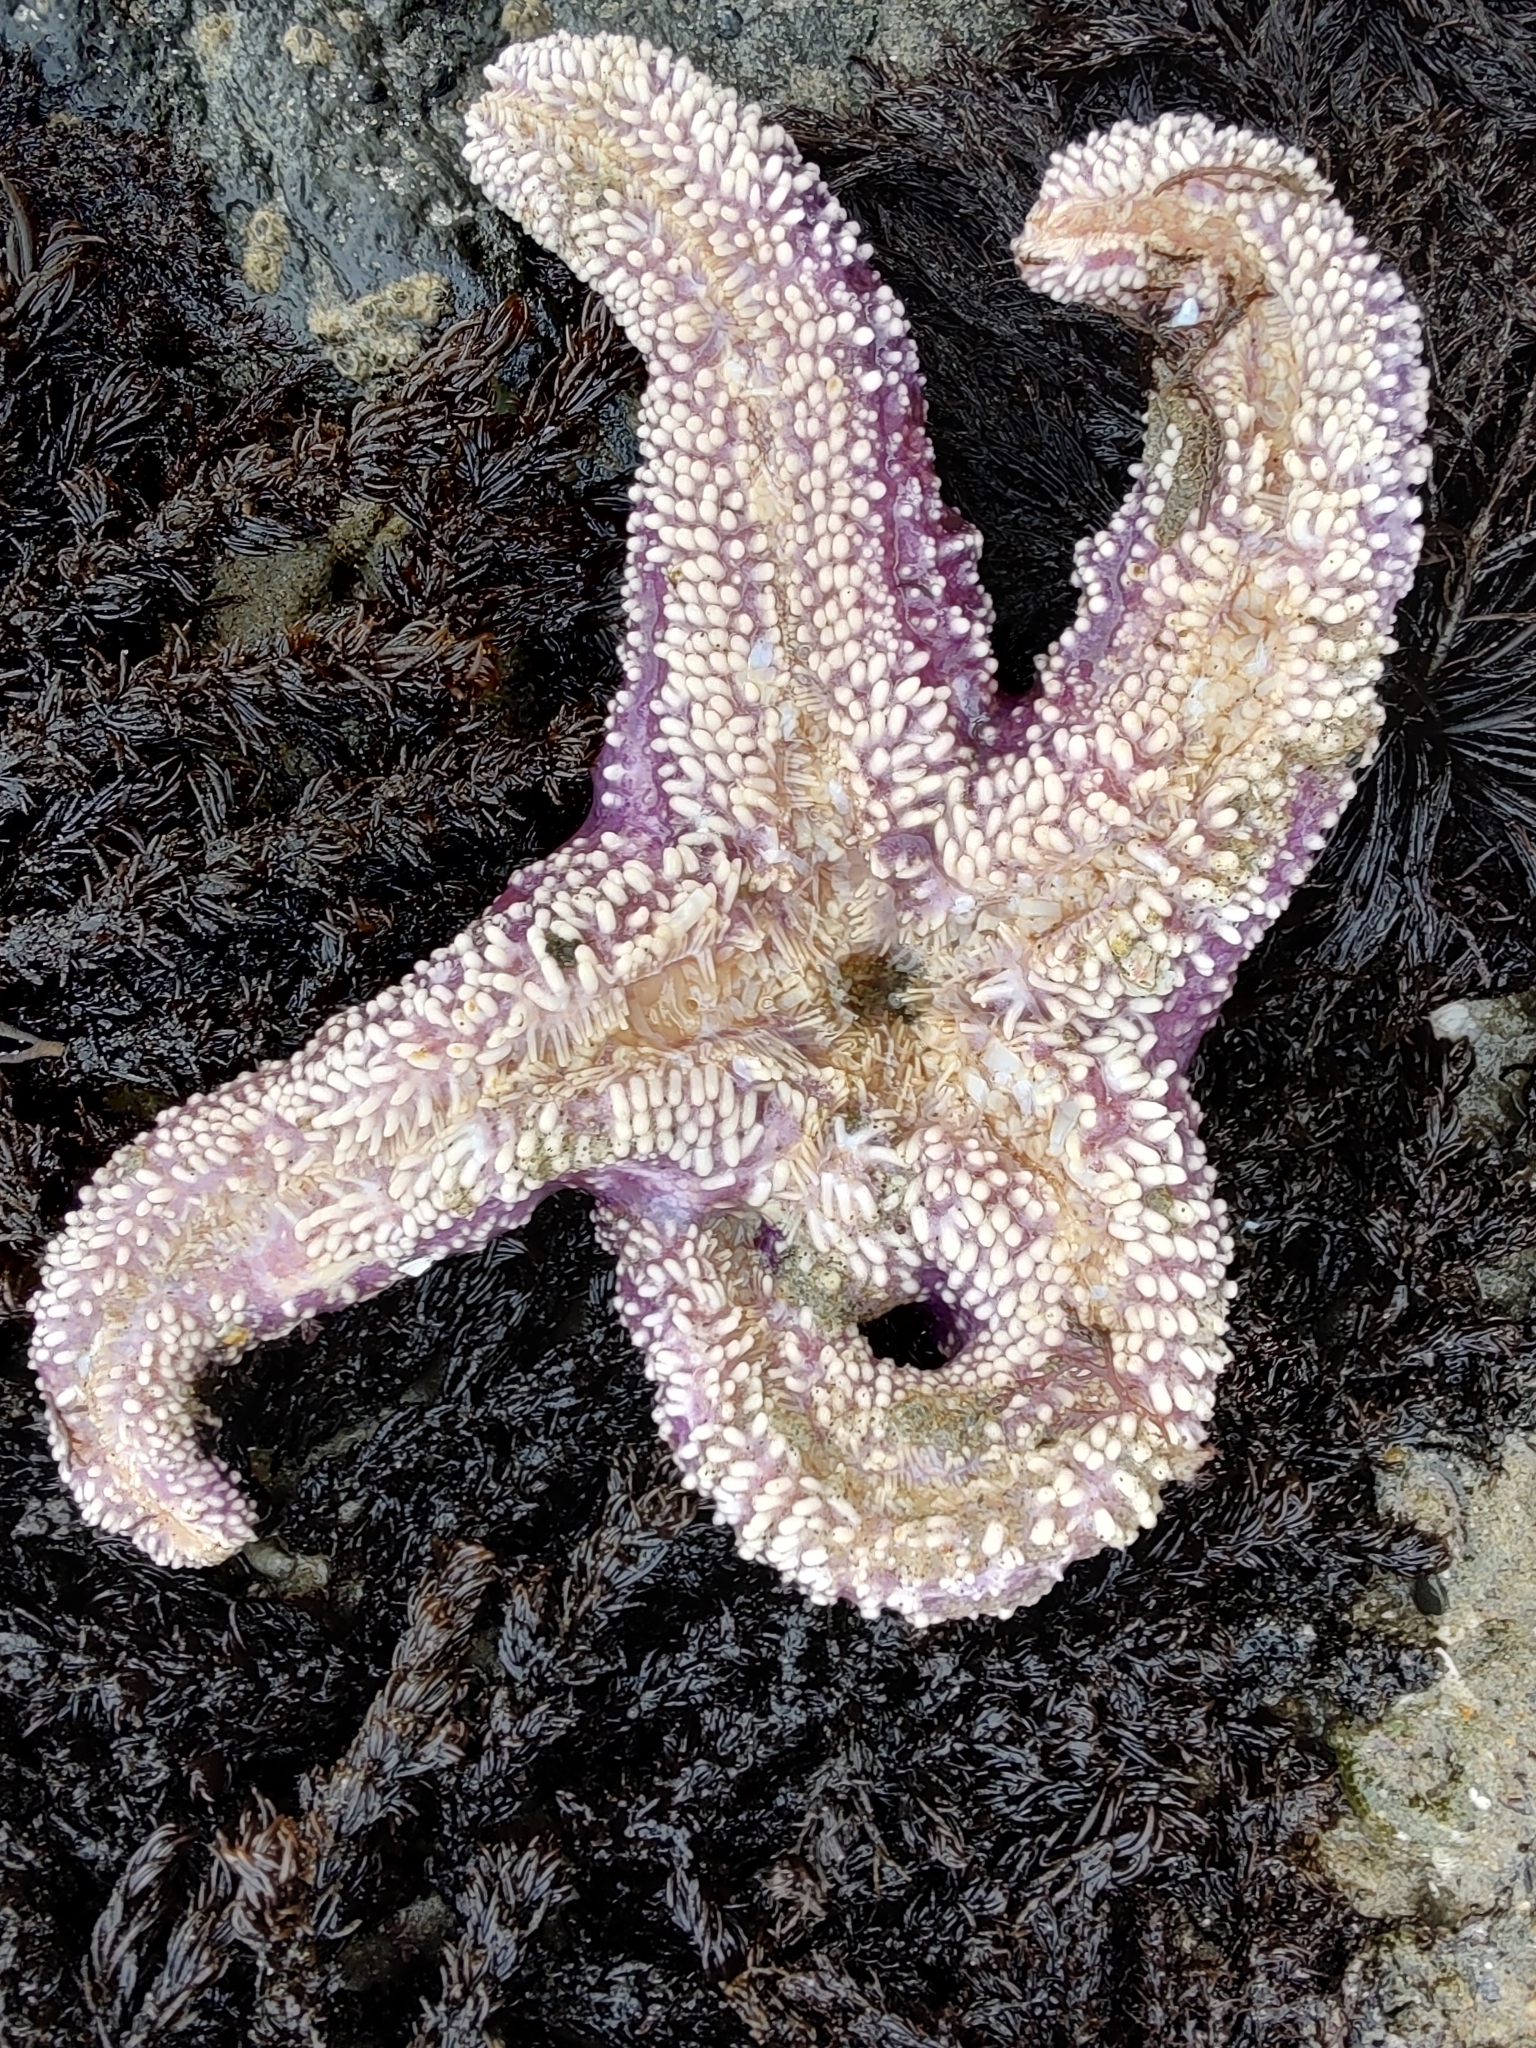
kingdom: Animalia
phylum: Echinodermata
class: Asteroidea
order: Forcipulatida
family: Asteriidae
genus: Pisaster
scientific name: Pisaster ochraceus
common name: Ochre stars
